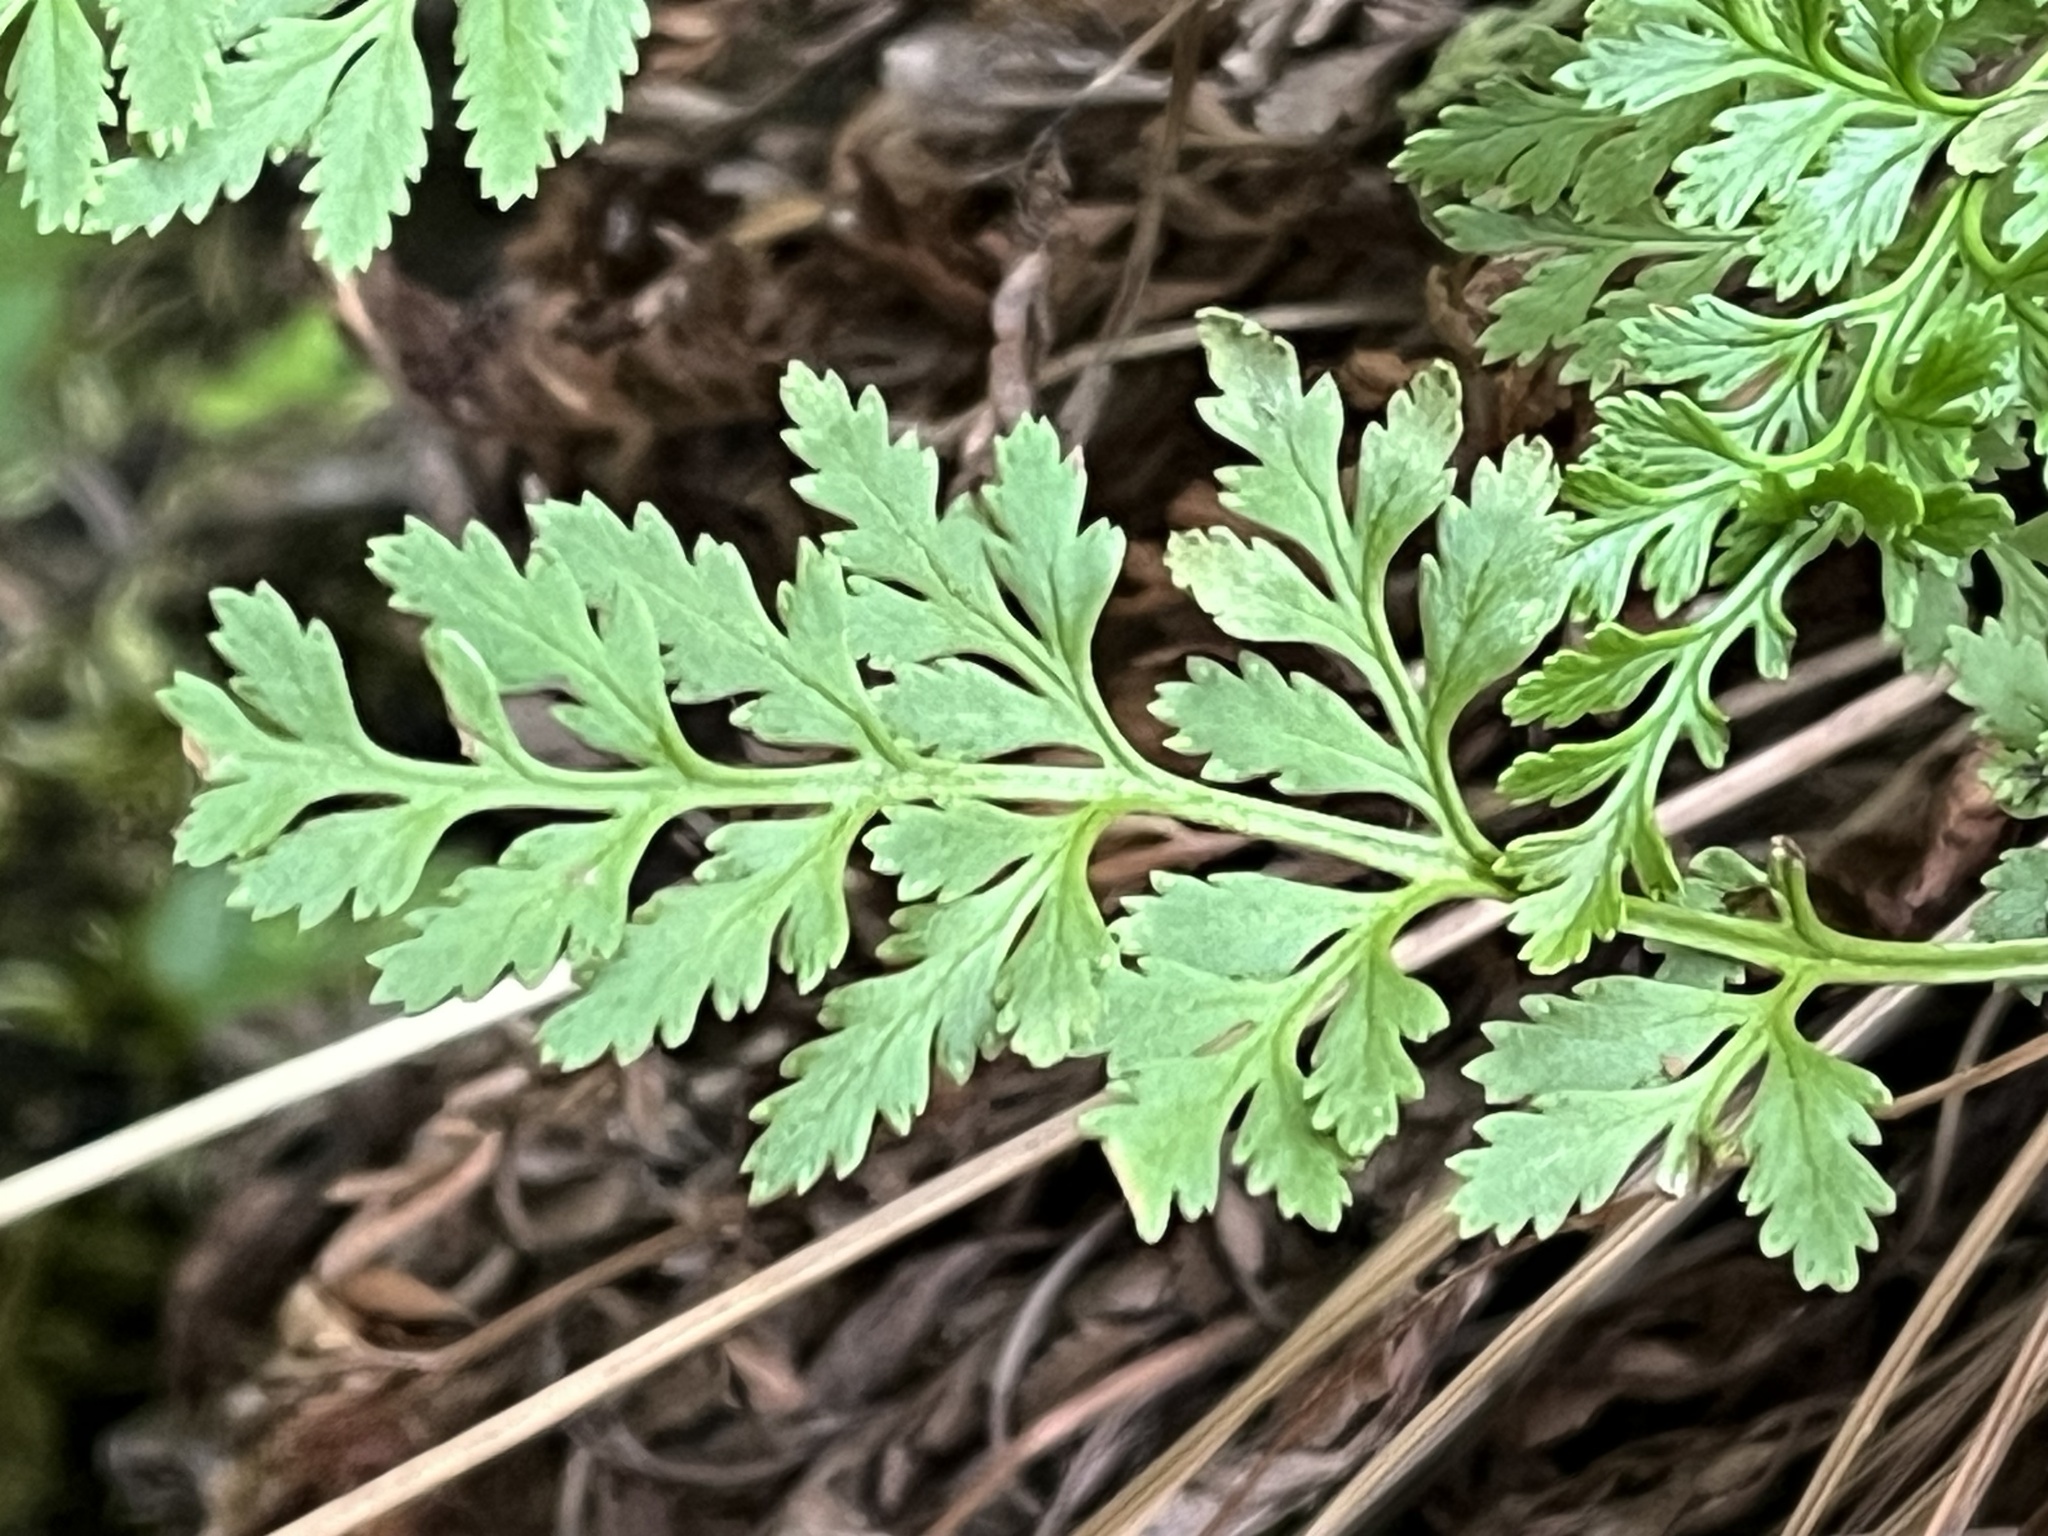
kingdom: Plantae
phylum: Tracheophyta
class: Polypodiopsida
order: Polypodiales
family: Pteridaceae
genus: Cryptogramma
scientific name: Cryptogramma acrostichoides
